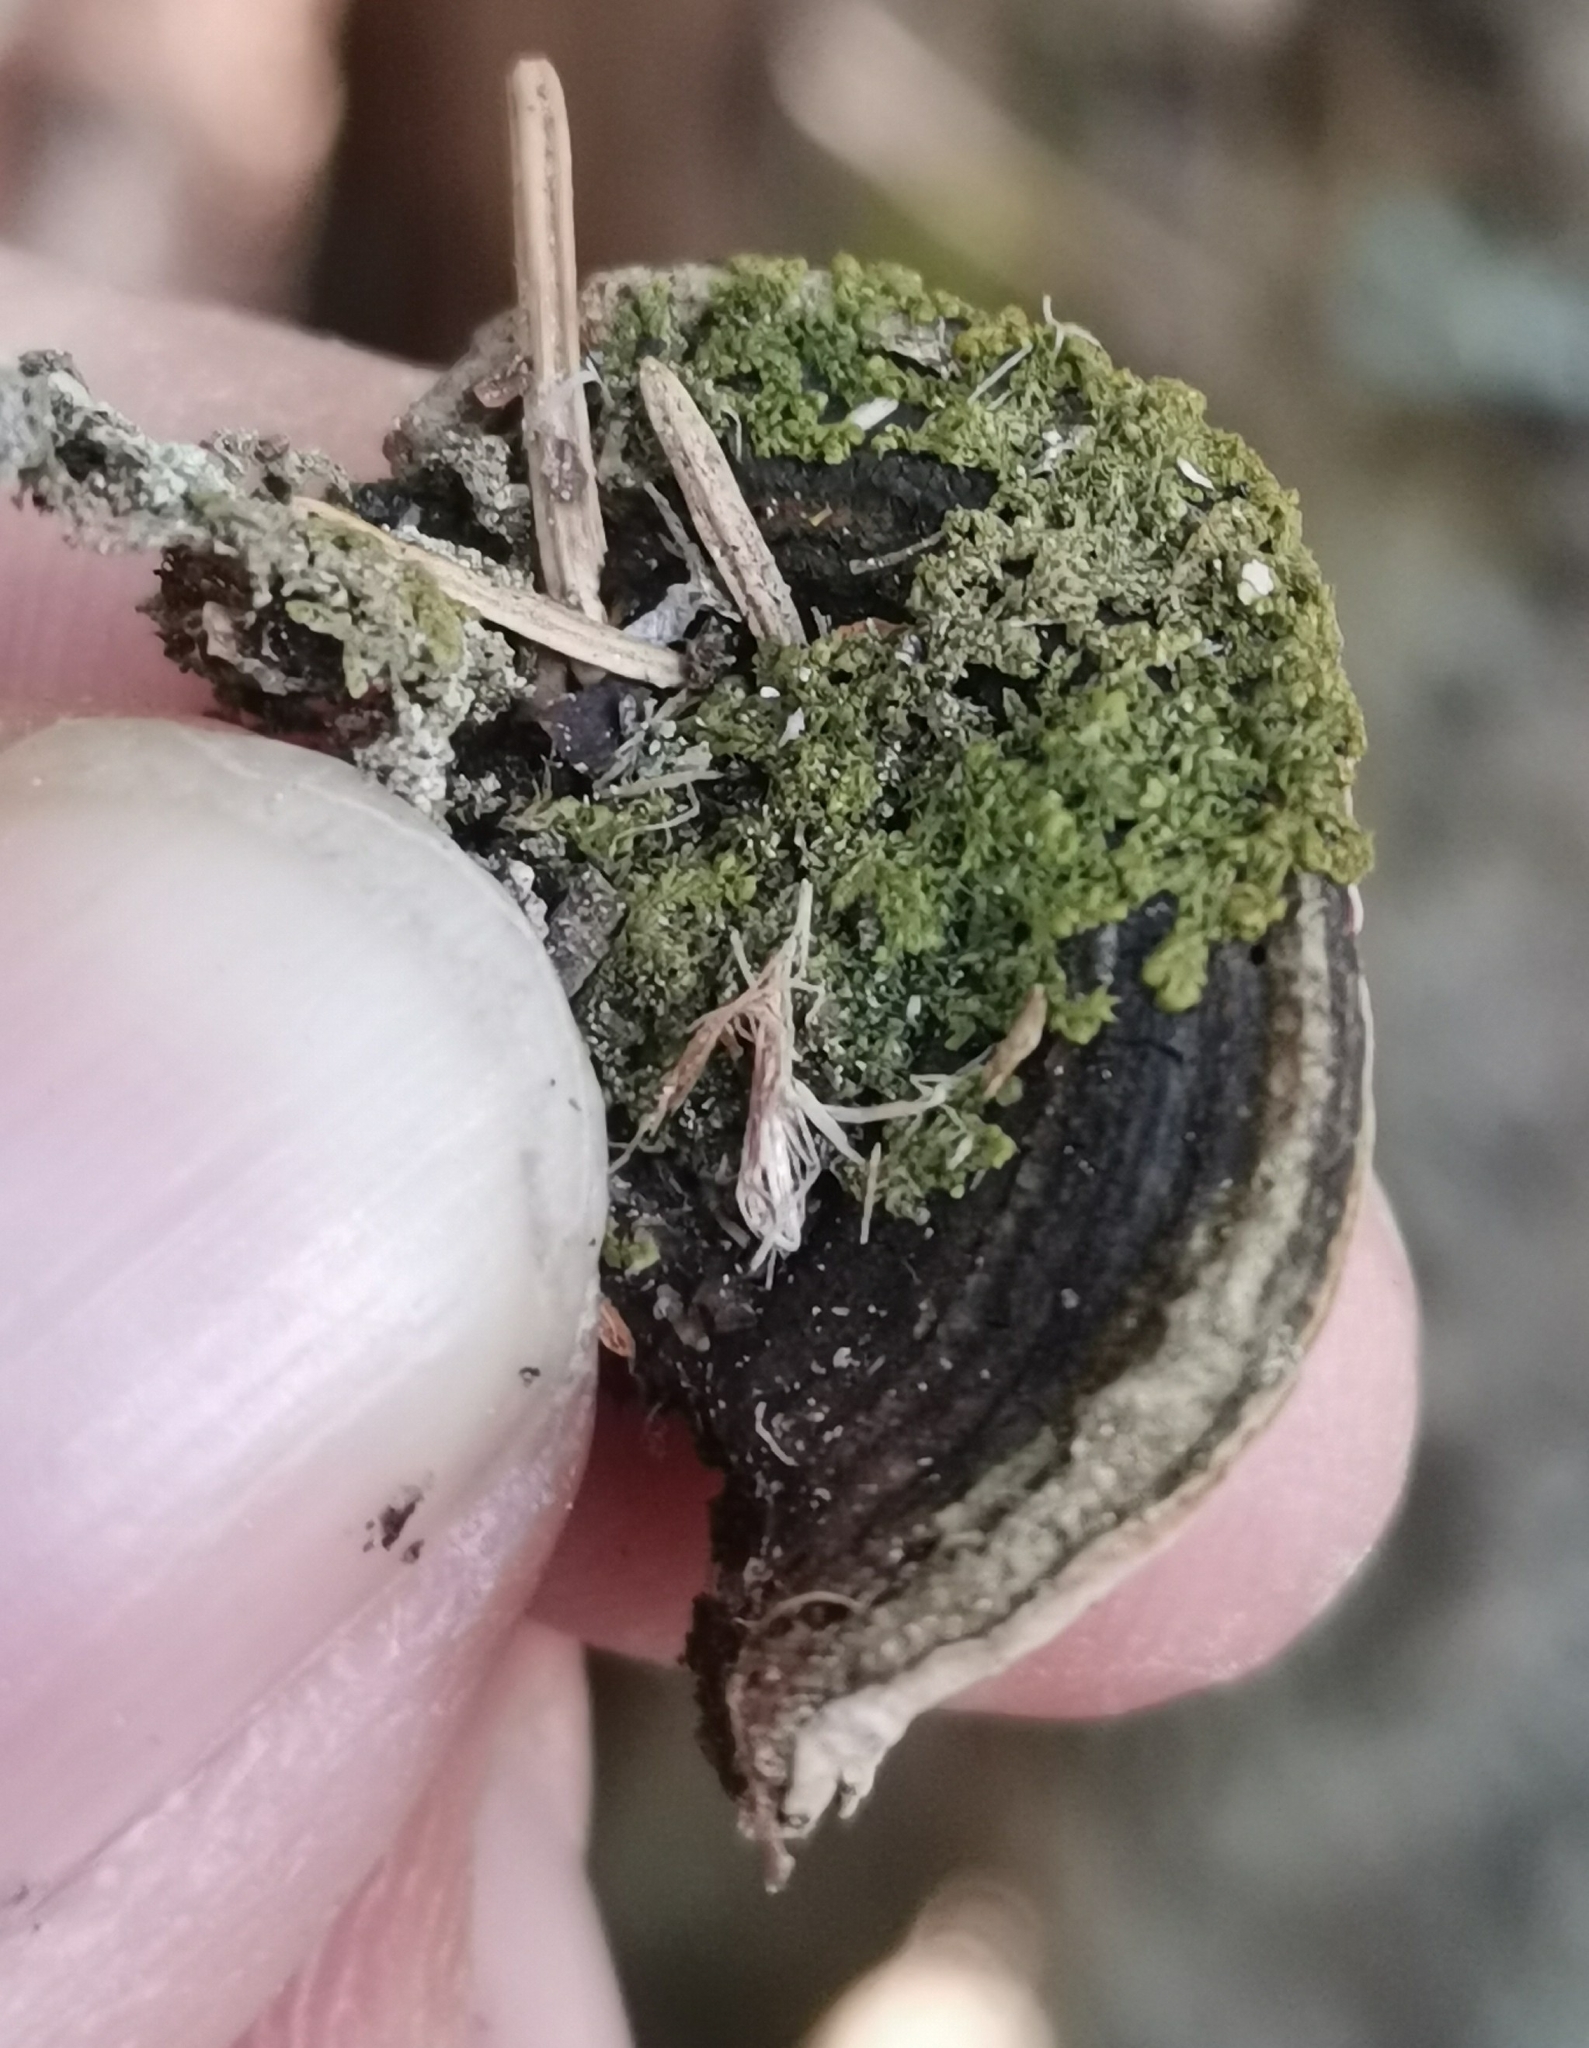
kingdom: Fungi
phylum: Basidiomycota
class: Agaricomycetes
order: Hymenochaetales
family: Hymenochaetaceae
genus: Phellinopsis
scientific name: Phellinopsis conchata
